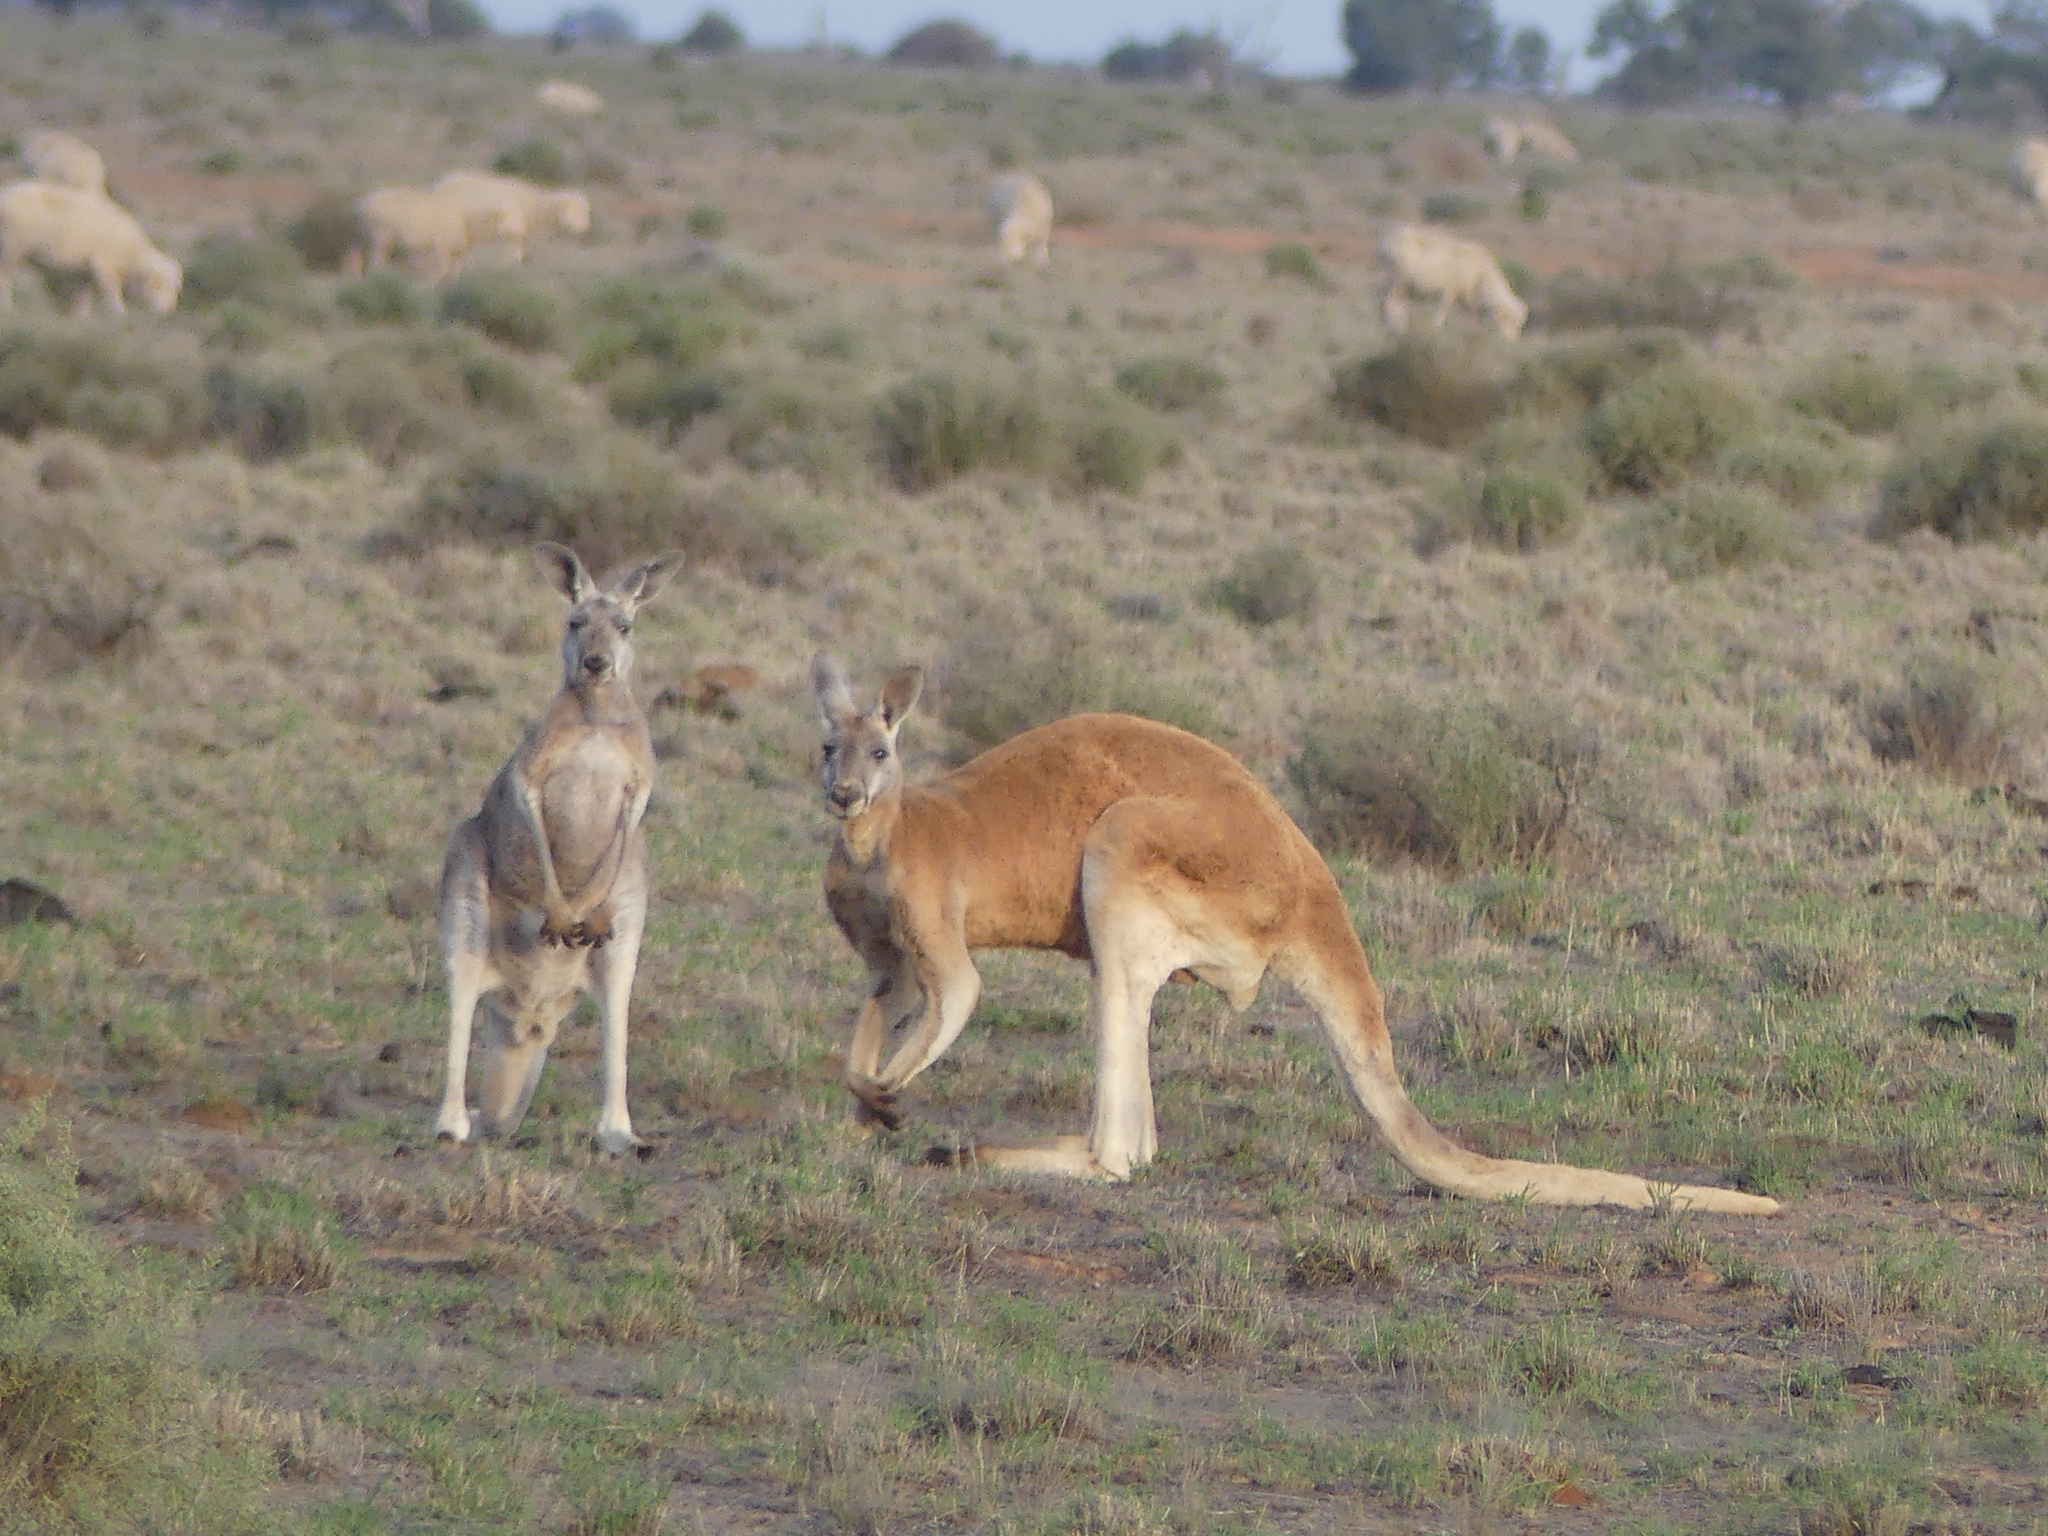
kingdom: Animalia
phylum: Chordata
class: Mammalia
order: Diprotodontia
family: Macropodidae
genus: Macropus
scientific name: Macropus rufus
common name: Red kangaroo
